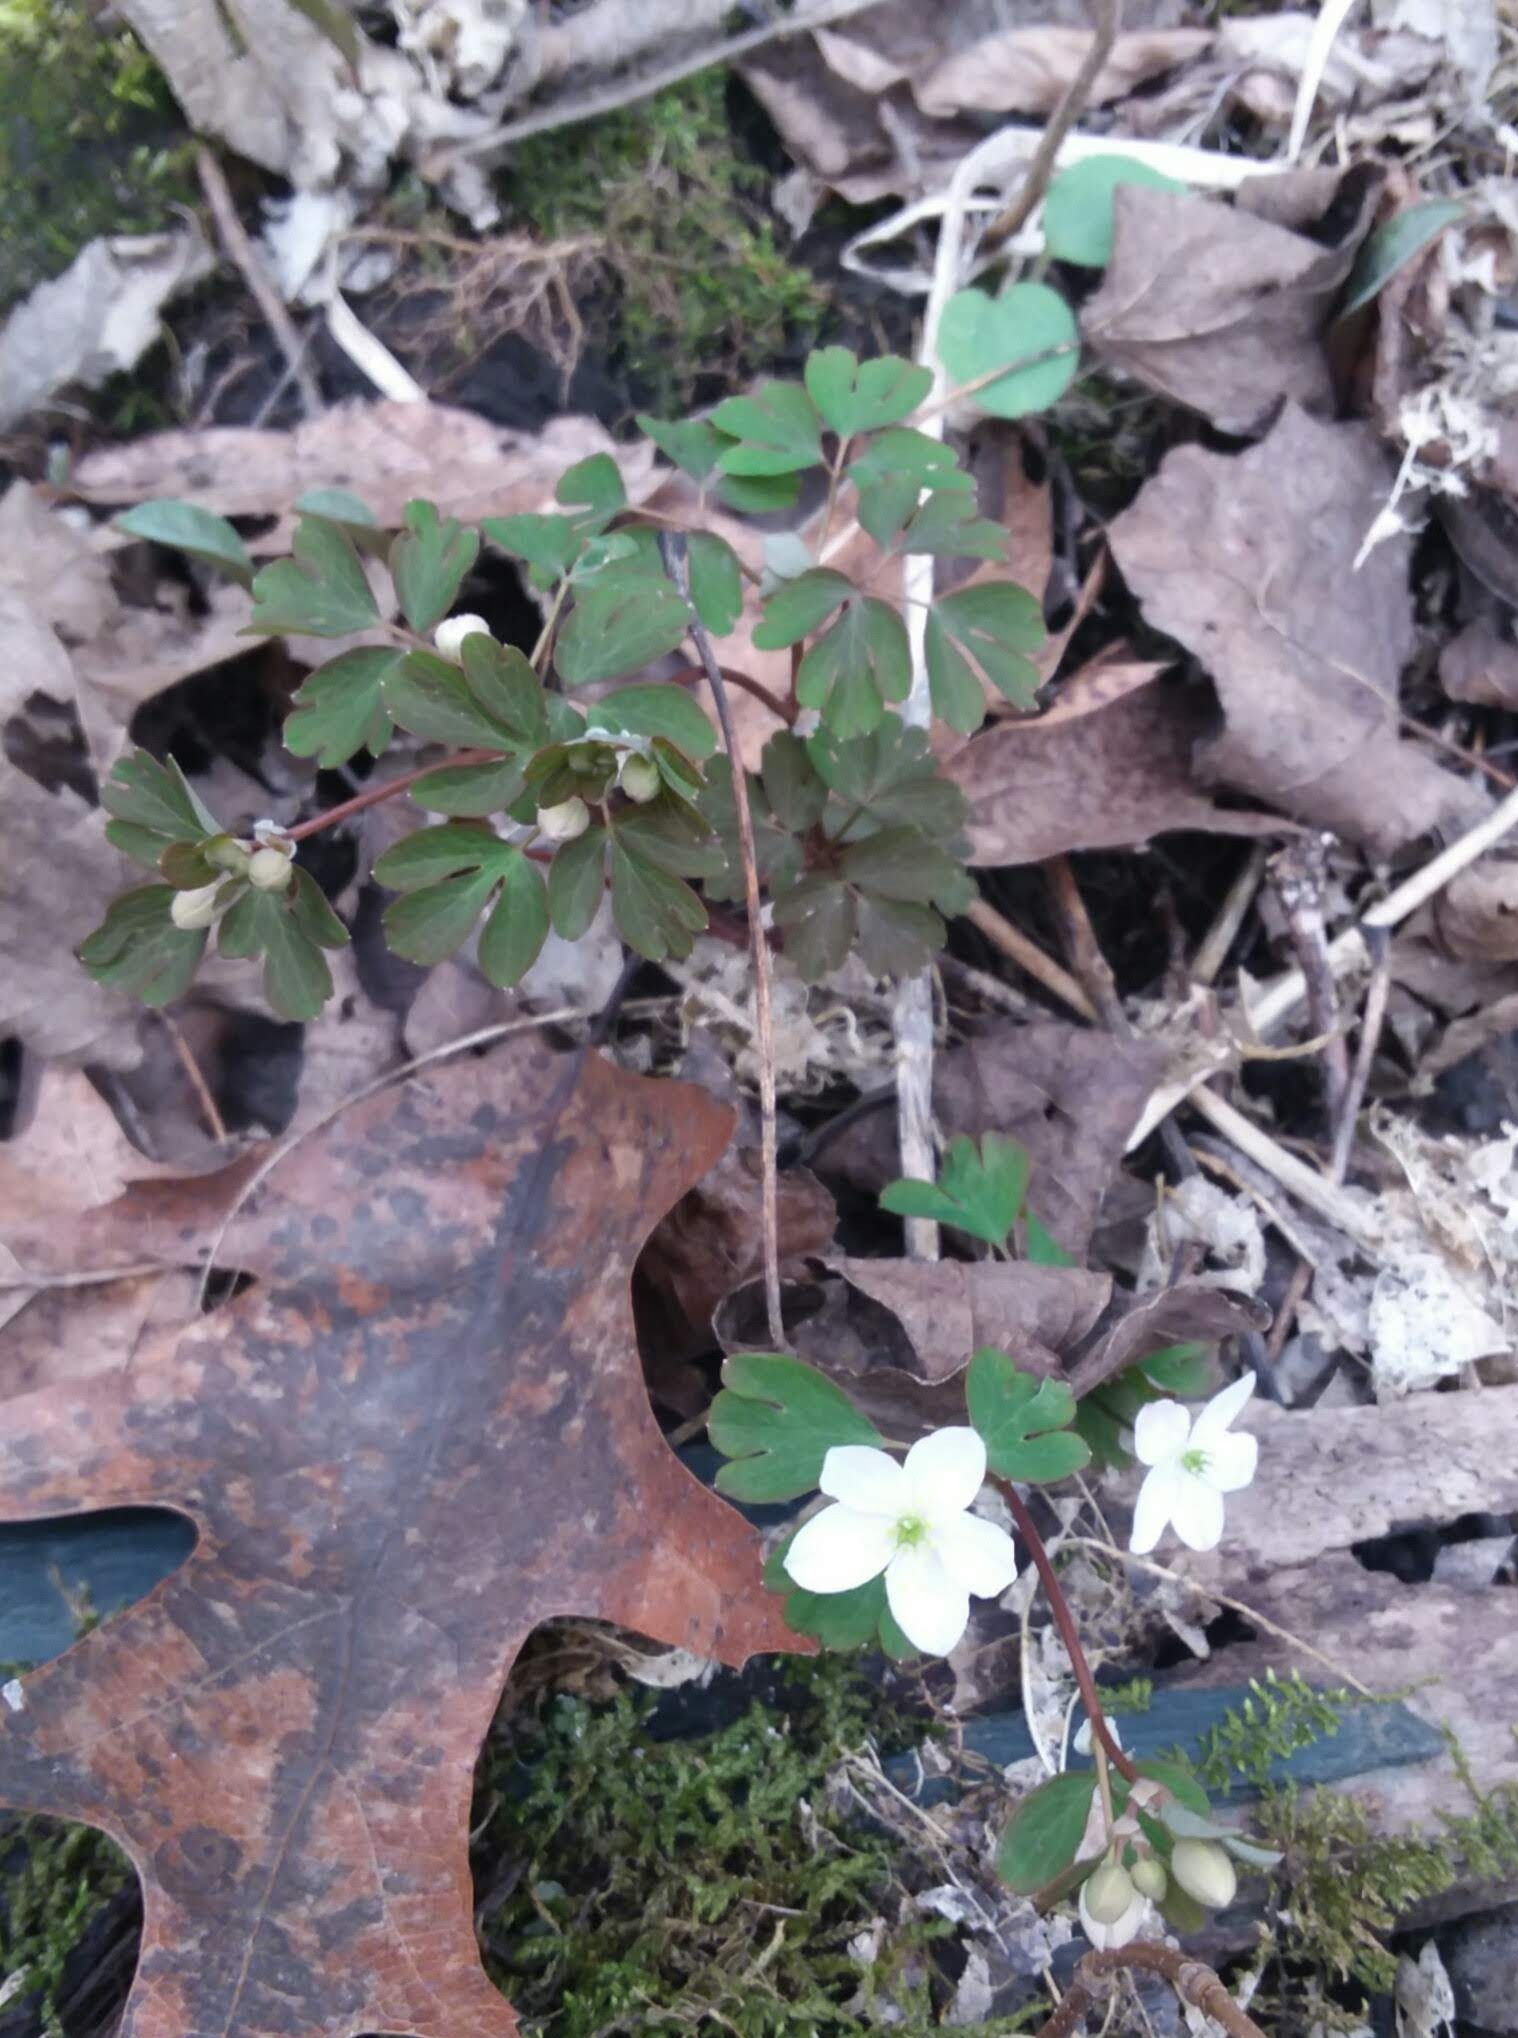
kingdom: Plantae
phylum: Tracheophyta
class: Magnoliopsida
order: Ranunculales
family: Ranunculaceae
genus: Enemion
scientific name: Enemion biternatum
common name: Eastern false rue-anemone
